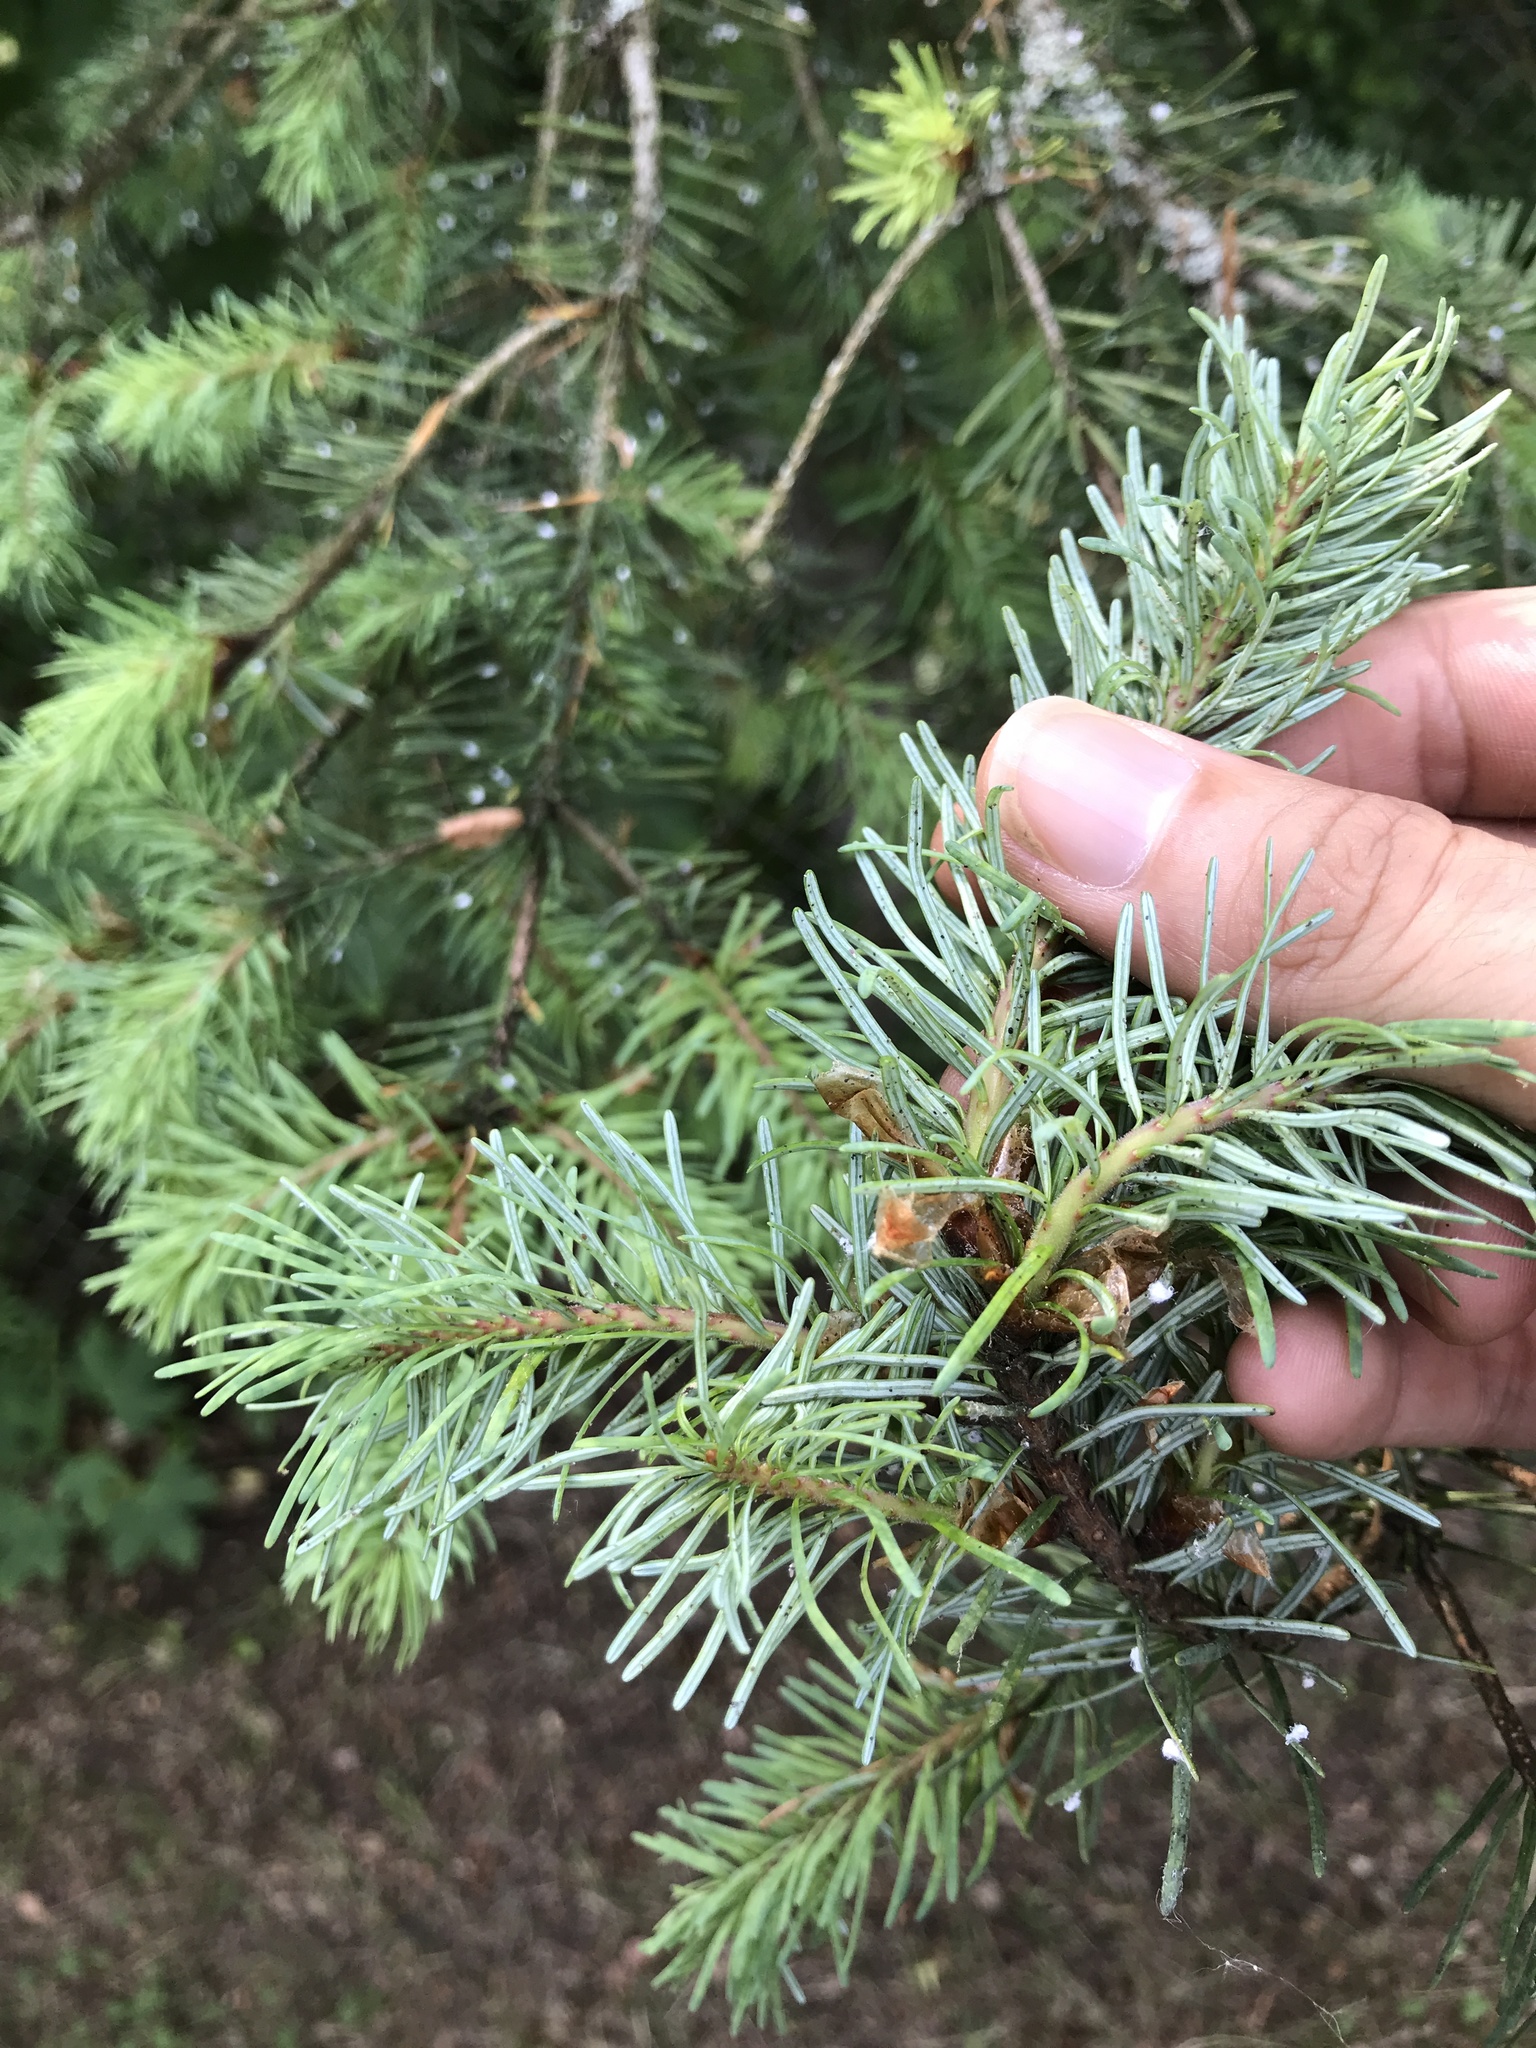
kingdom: Plantae
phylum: Tracheophyta
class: Pinopsida
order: Pinales
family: Pinaceae
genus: Pseudotsuga
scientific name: Pseudotsuga menziesii
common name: Douglas fir
